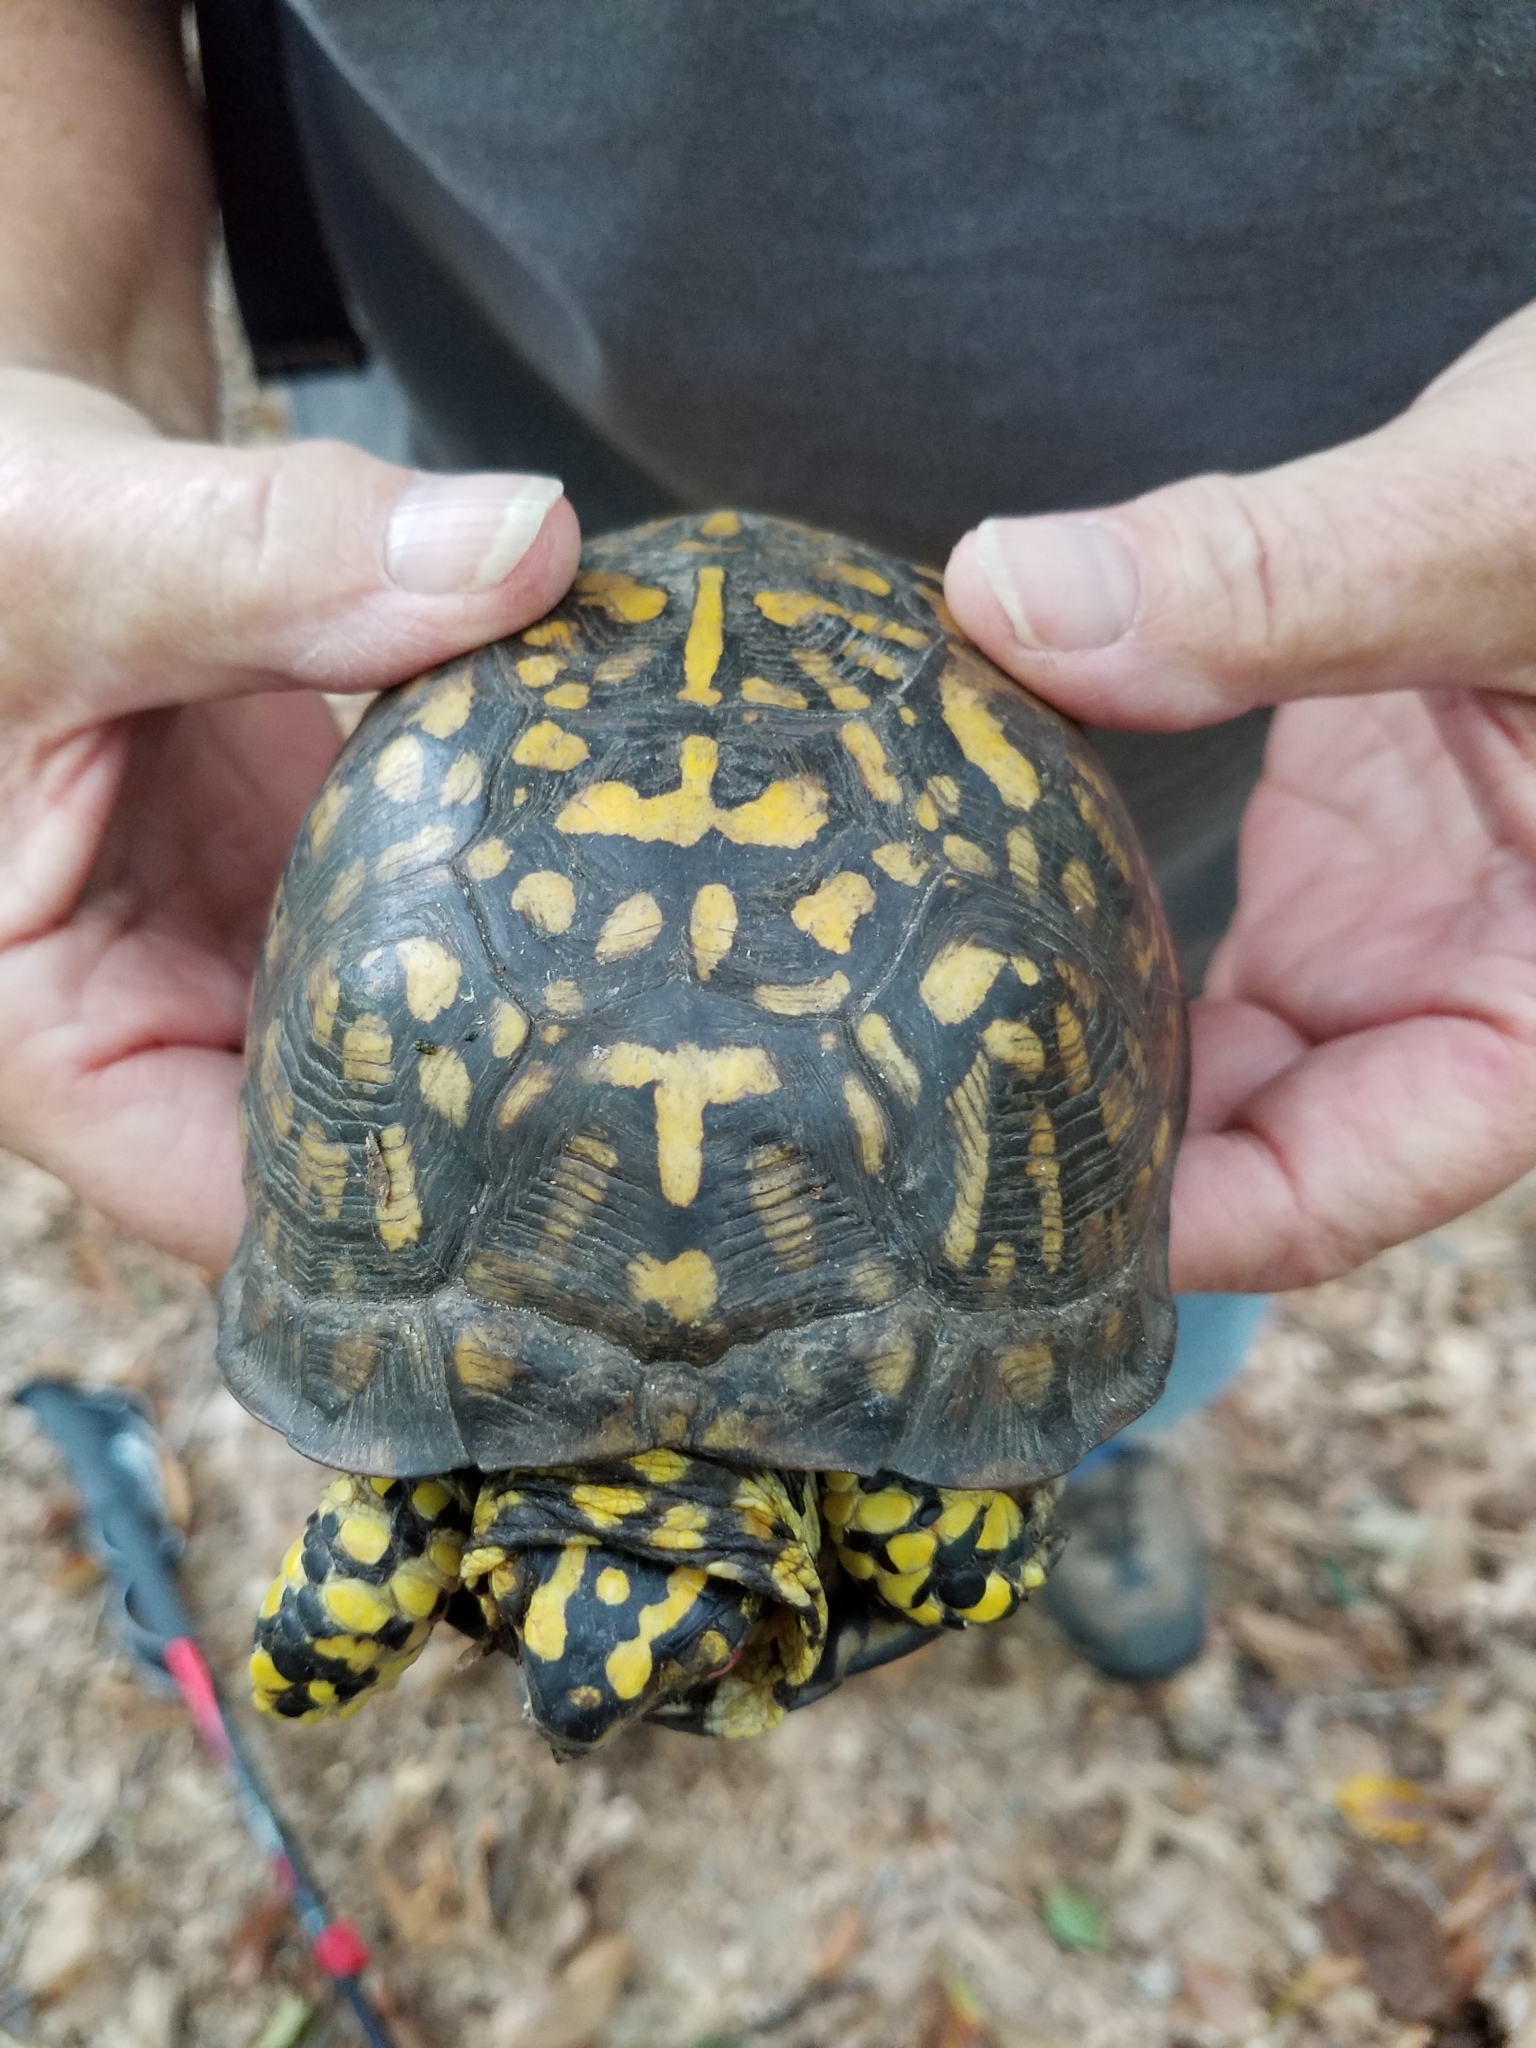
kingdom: Animalia
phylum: Chordata
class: Testudines
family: Emydidae
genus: Terrapene
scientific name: Terrapene carolina
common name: Common box turtle
